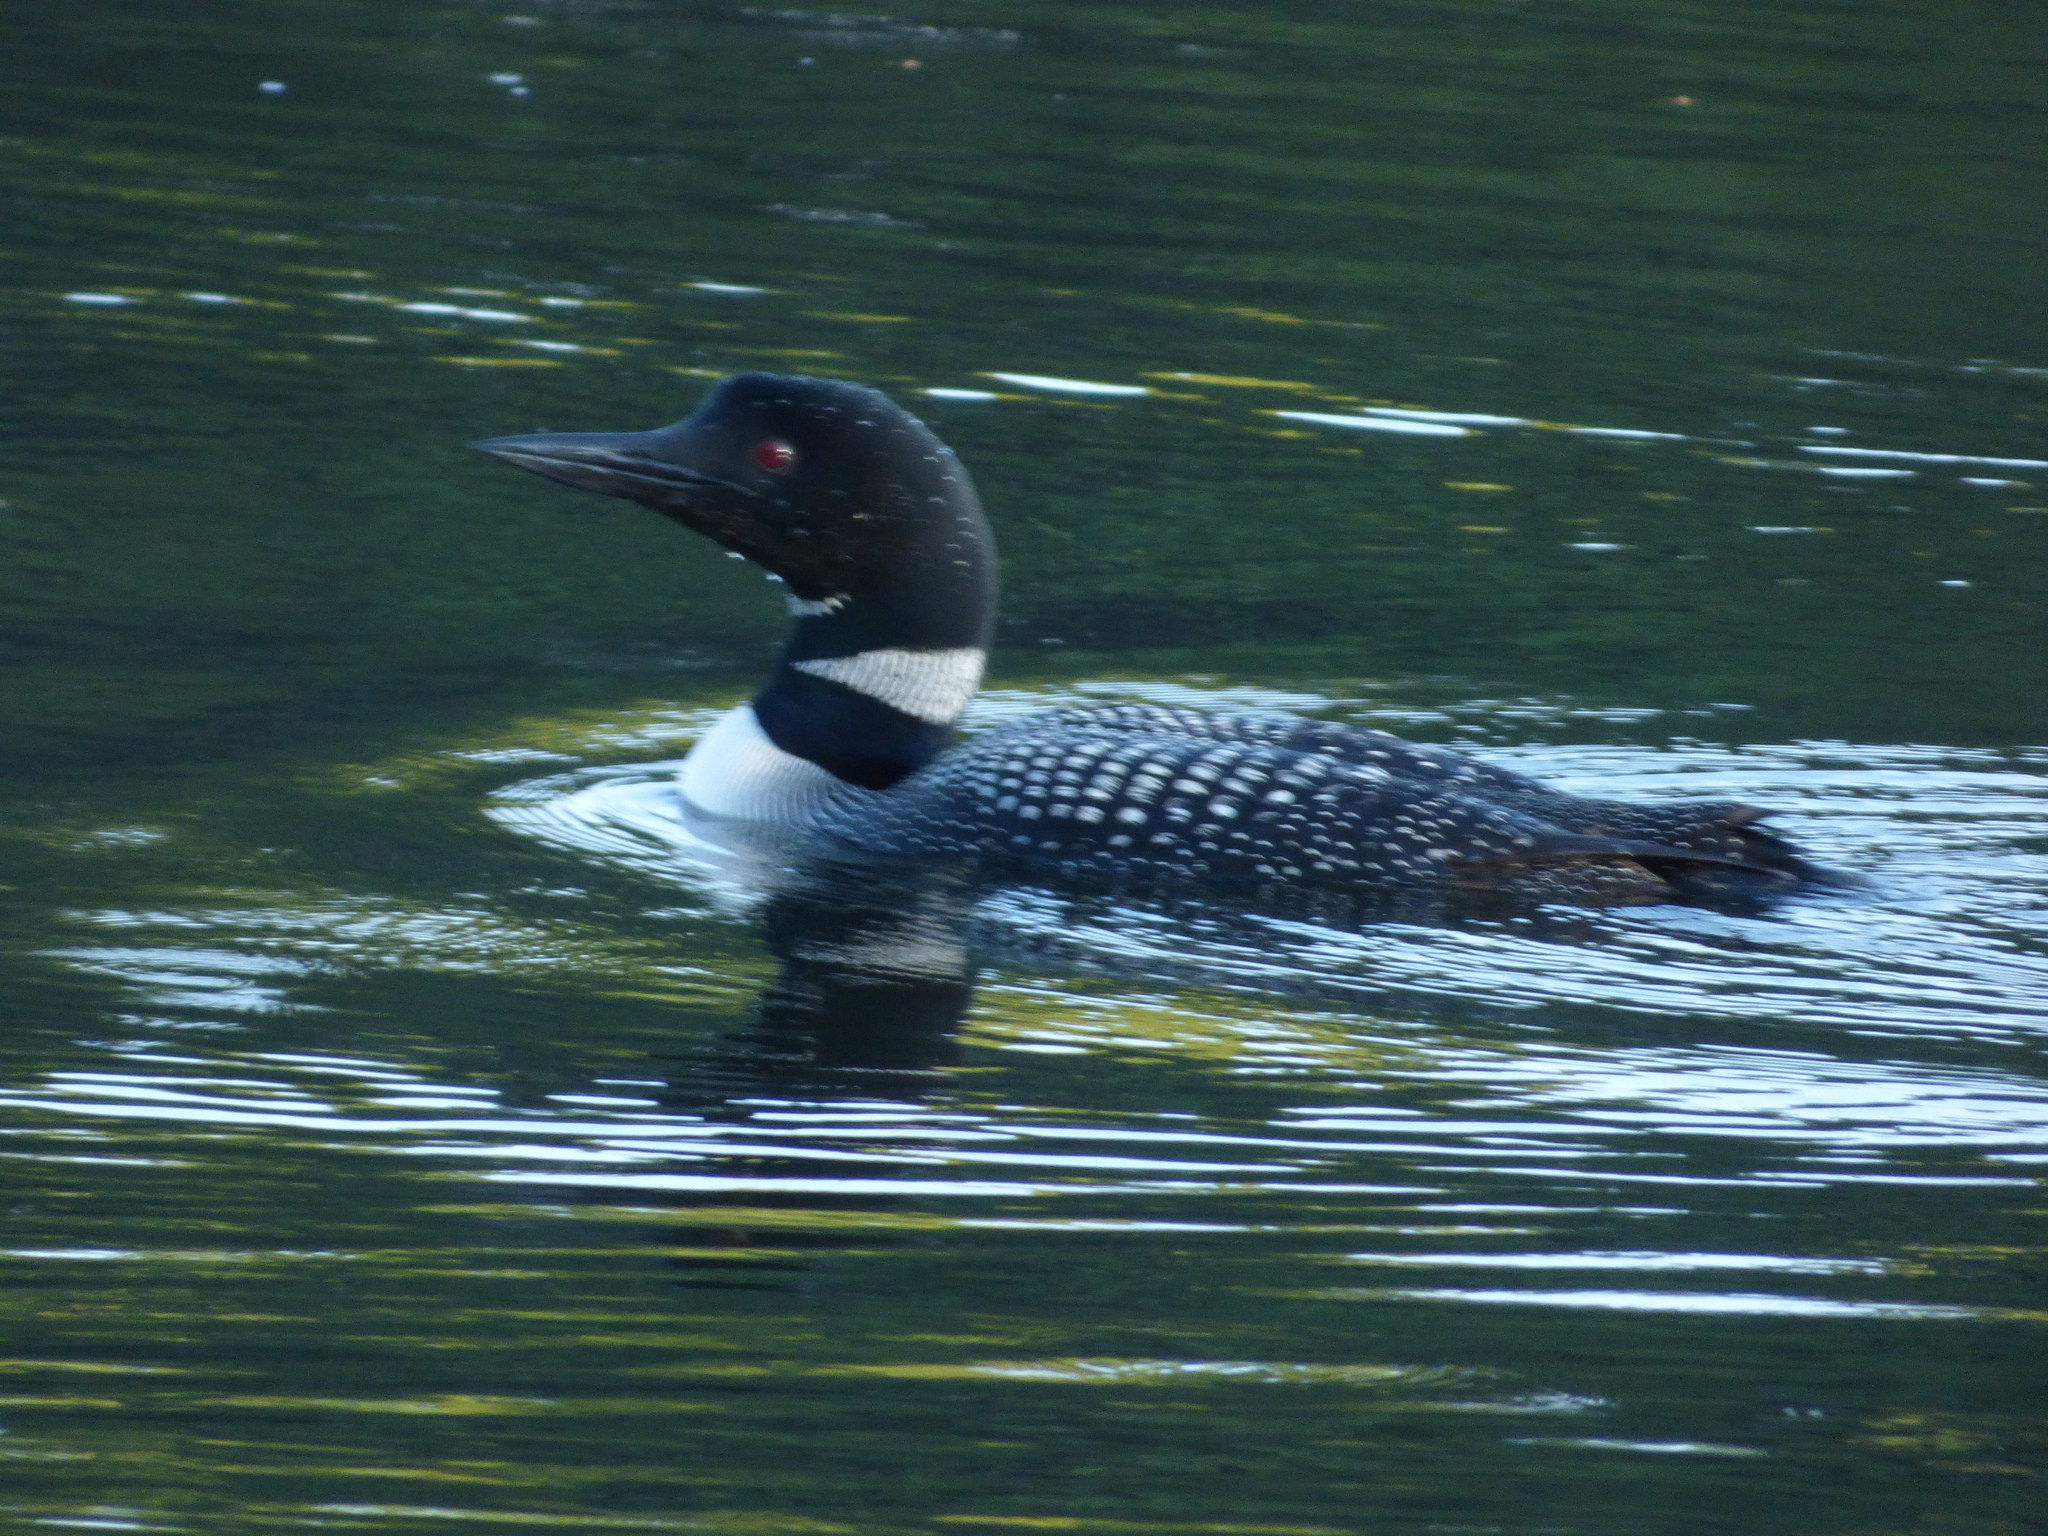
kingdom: Animalia
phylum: Chordata
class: Aves
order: Gaviiformes
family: Gaviidae
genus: Gavia
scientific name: Gavia immer
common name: Common loon
